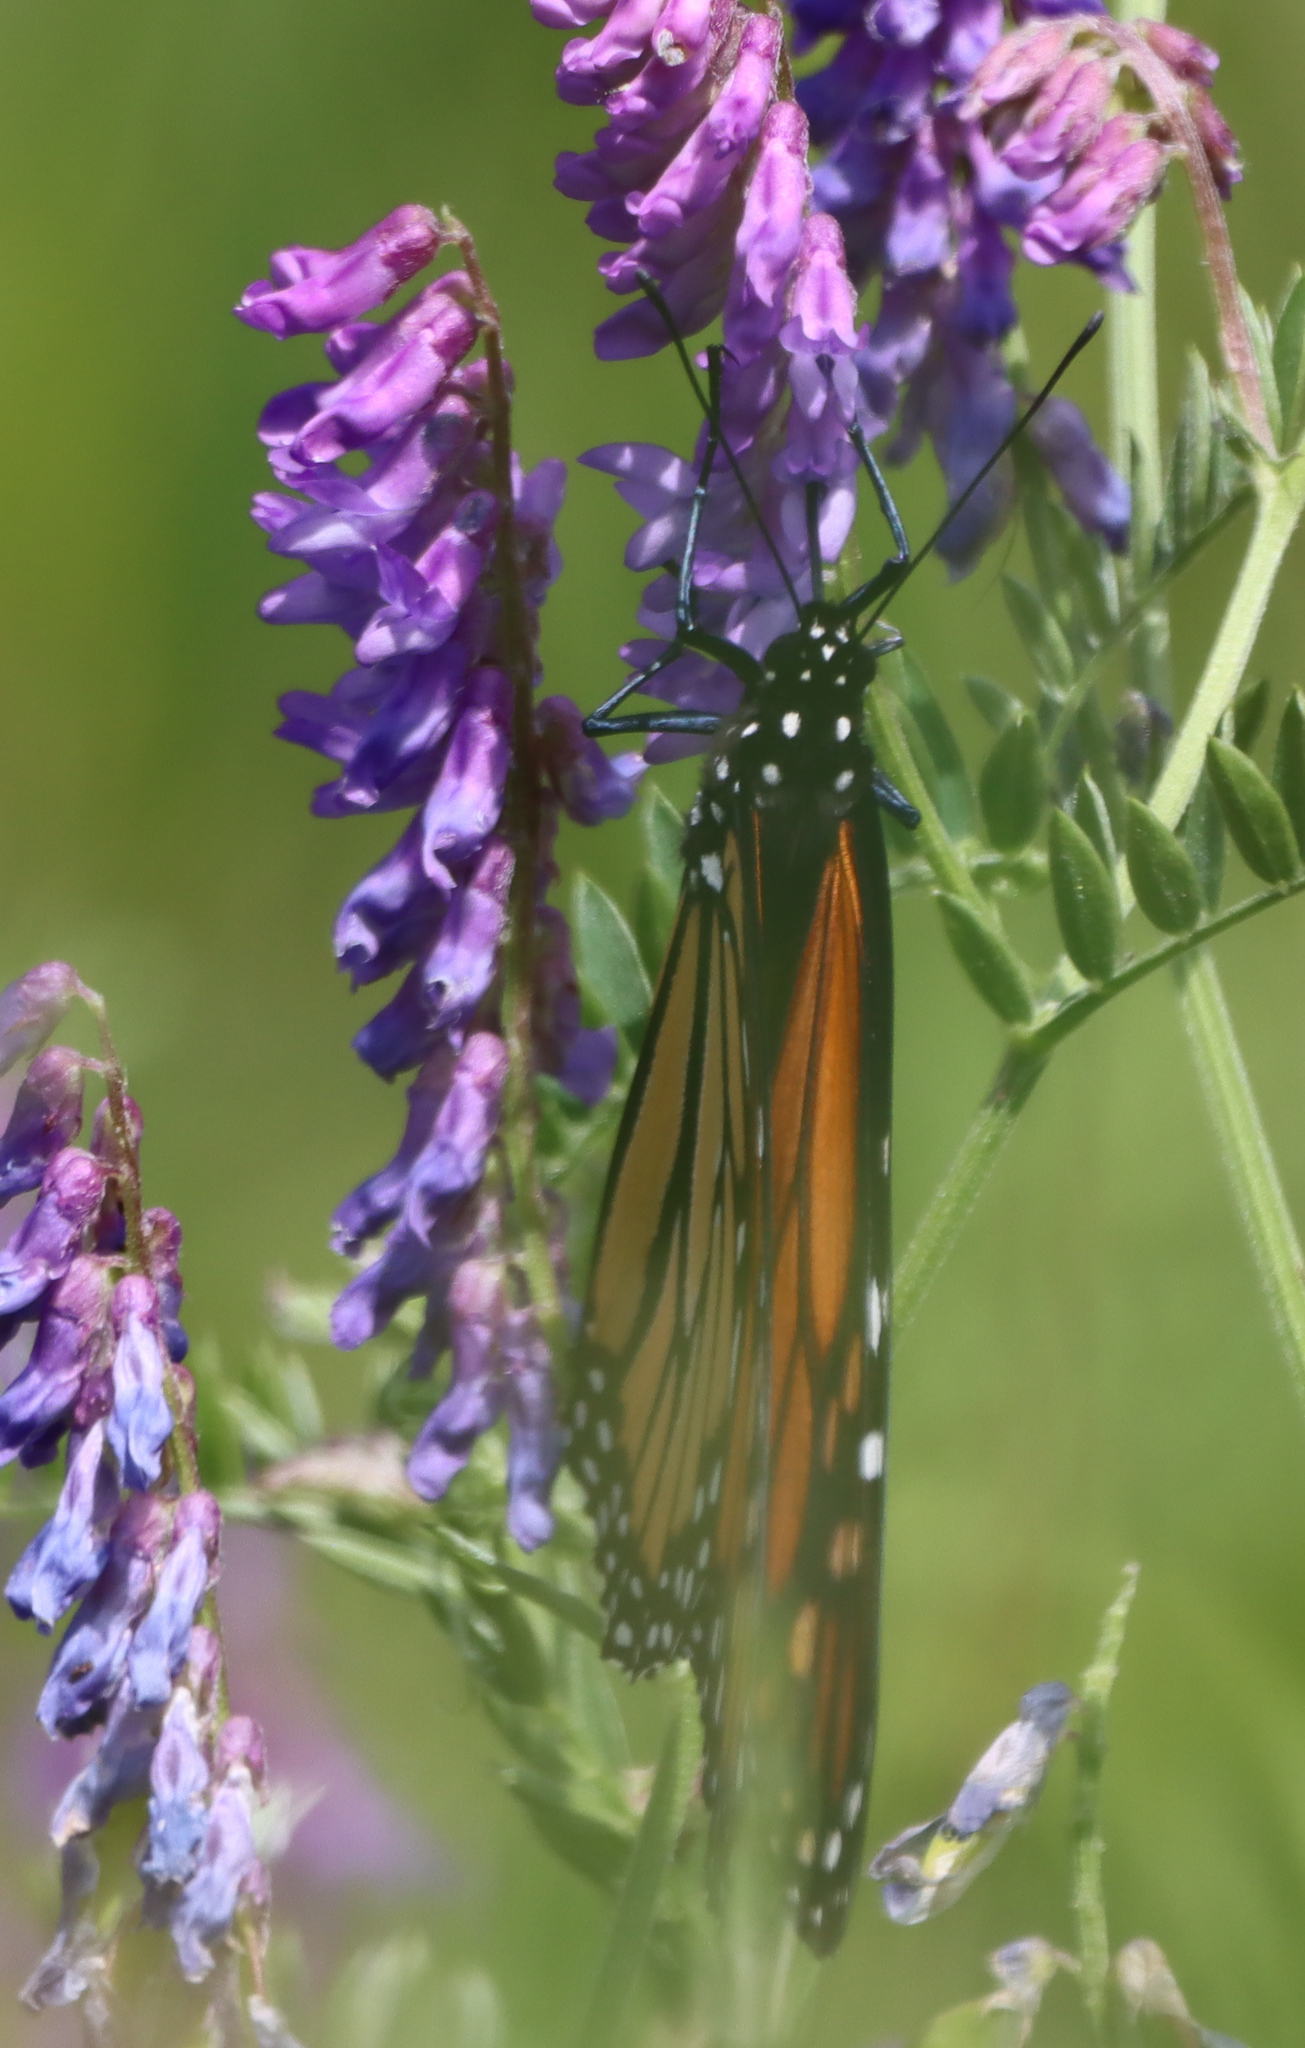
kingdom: Animalia
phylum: Arthropoda
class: Insecta
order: Lepidoptera
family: Nymphalidae
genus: Danaus
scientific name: Danaus plexippus
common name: Monarch
